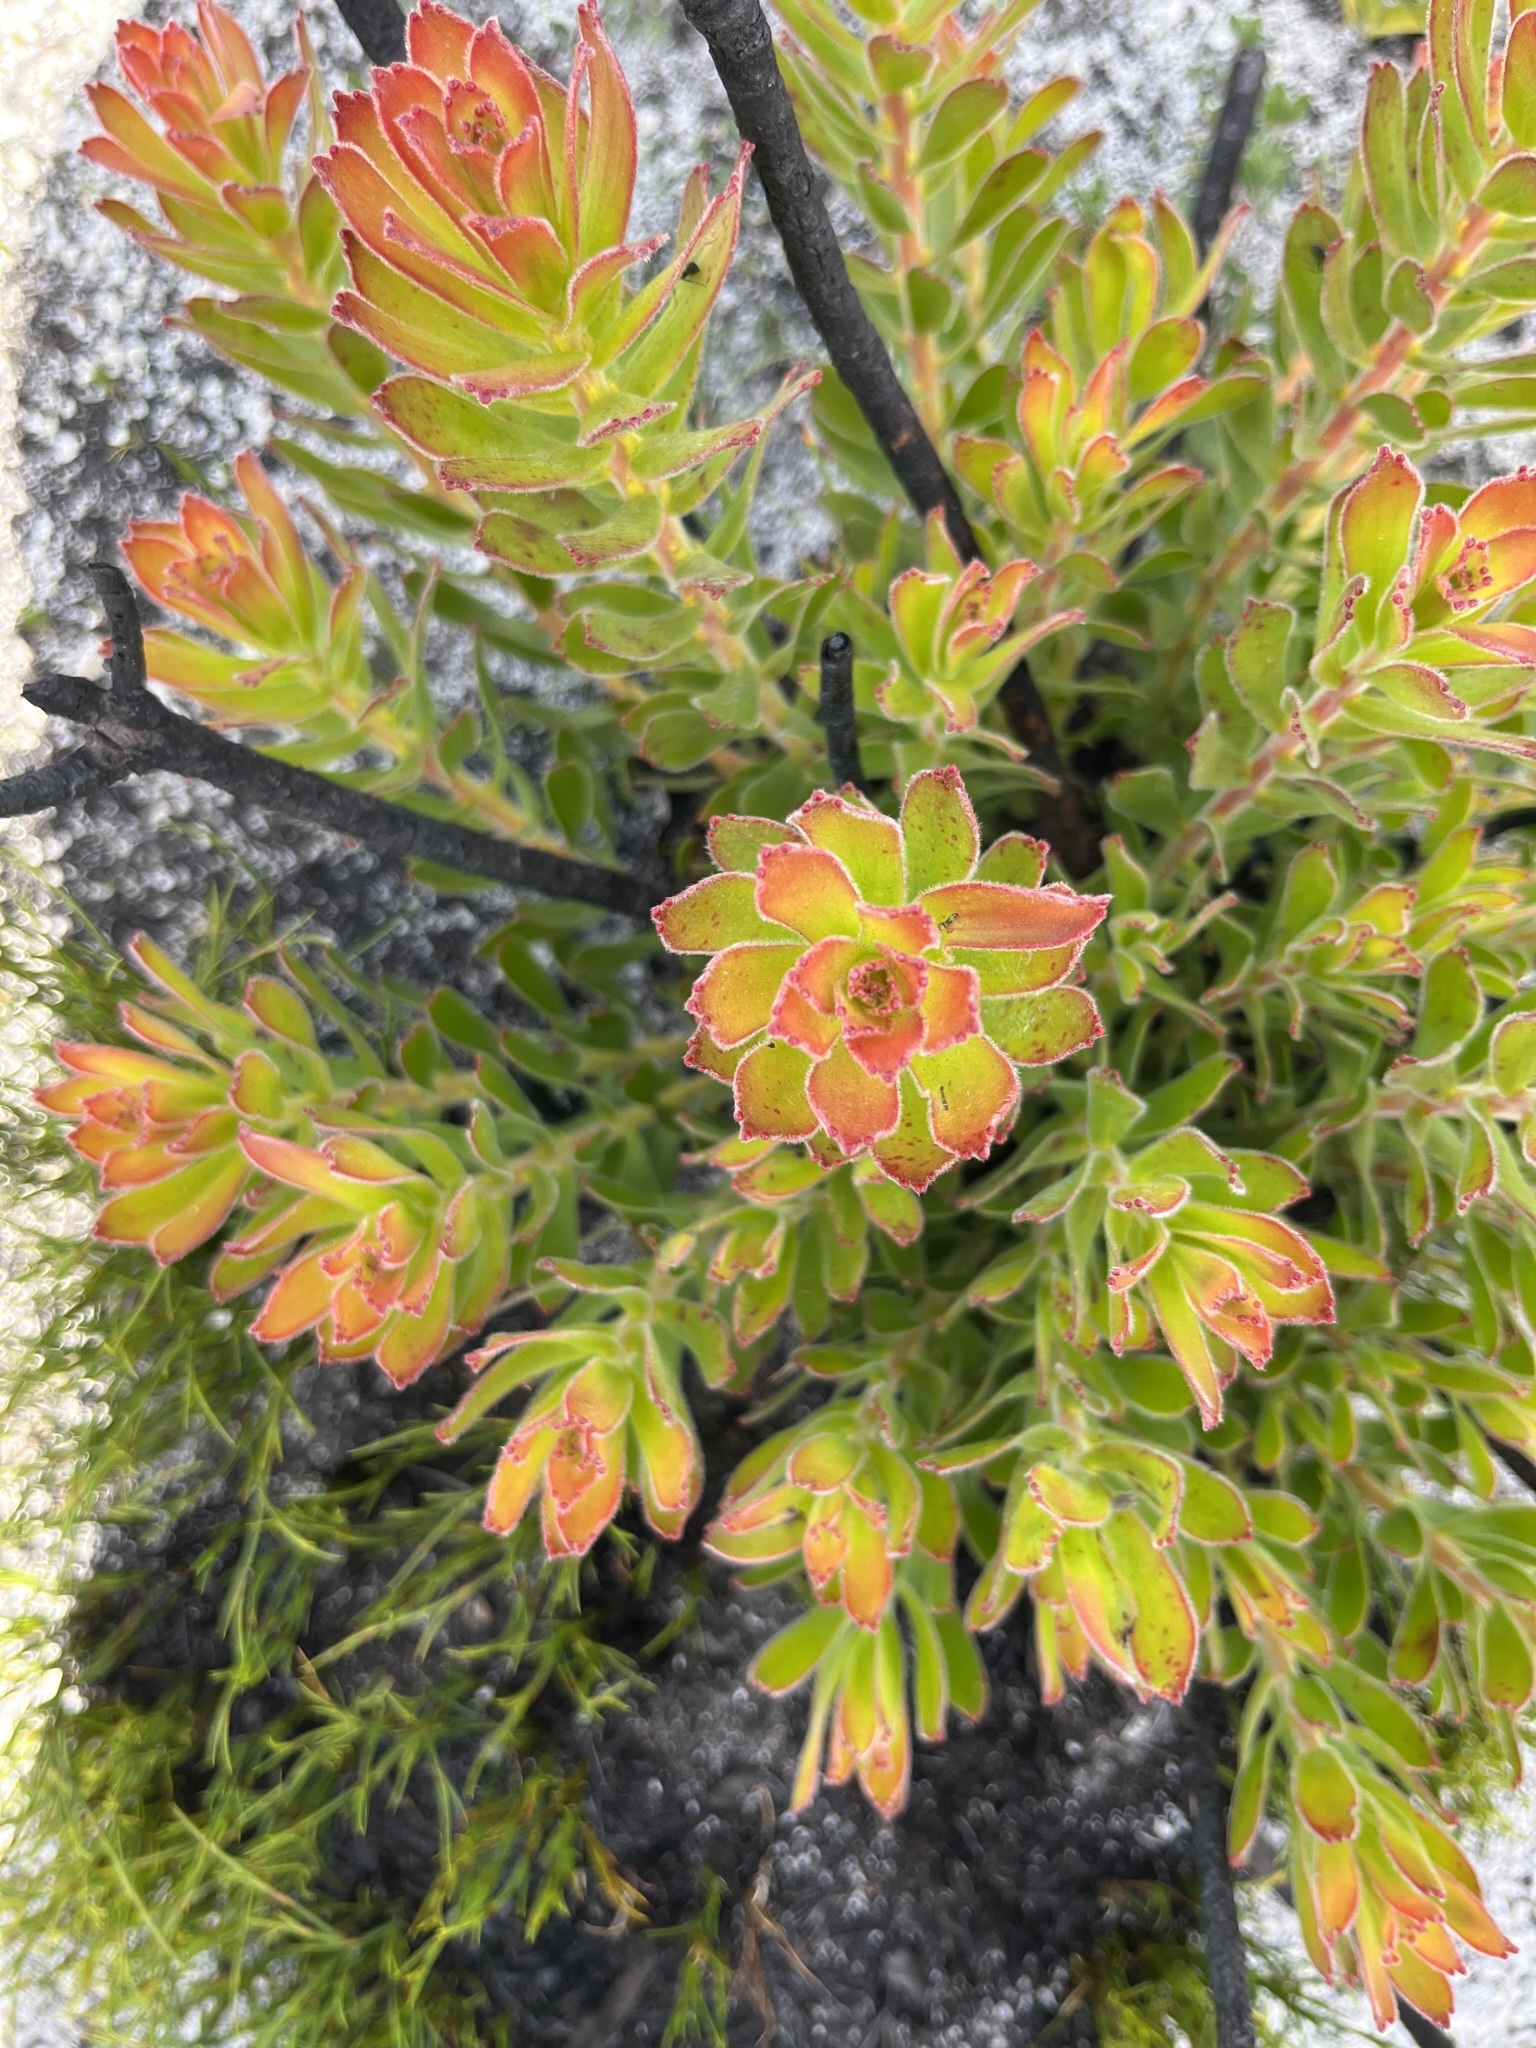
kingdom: Plantae
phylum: Tracheophyta
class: Magnoliopsida
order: Proteales
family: Proteaceae
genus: Mimetes
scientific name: Mimetes cucullatus
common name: Common pagoda
